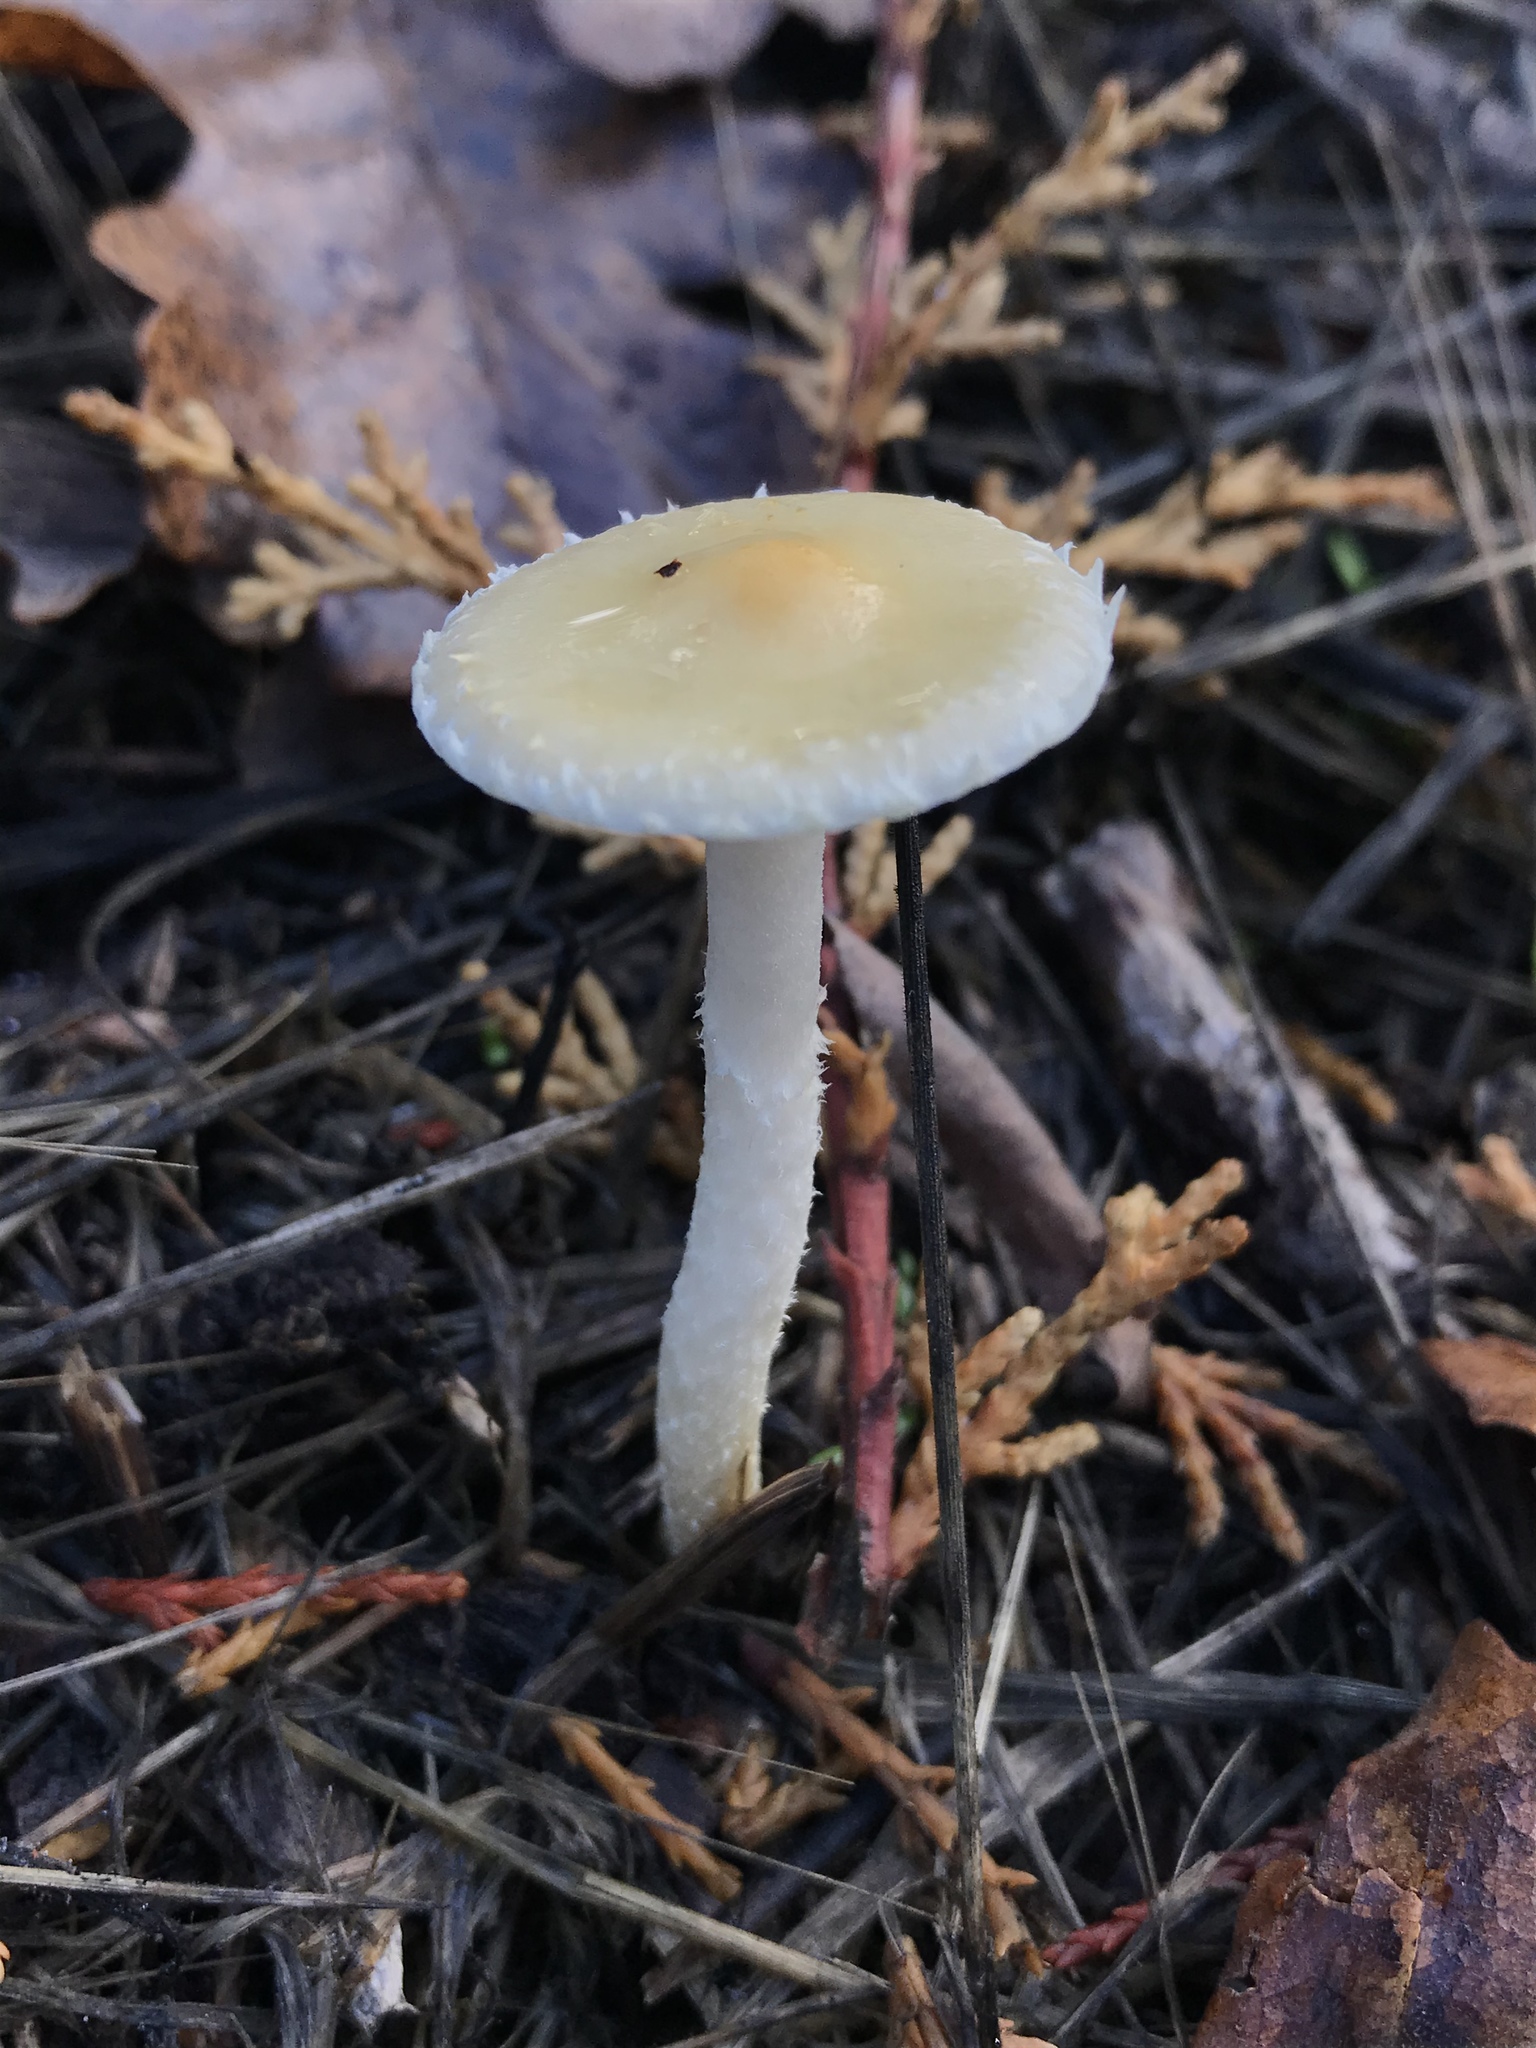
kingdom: Fungi
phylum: Basidiomycota
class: Agaricomycetes
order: Agaricales
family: Strophariaceae
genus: Leratiomyces
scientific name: Leratiomyces percevalii
